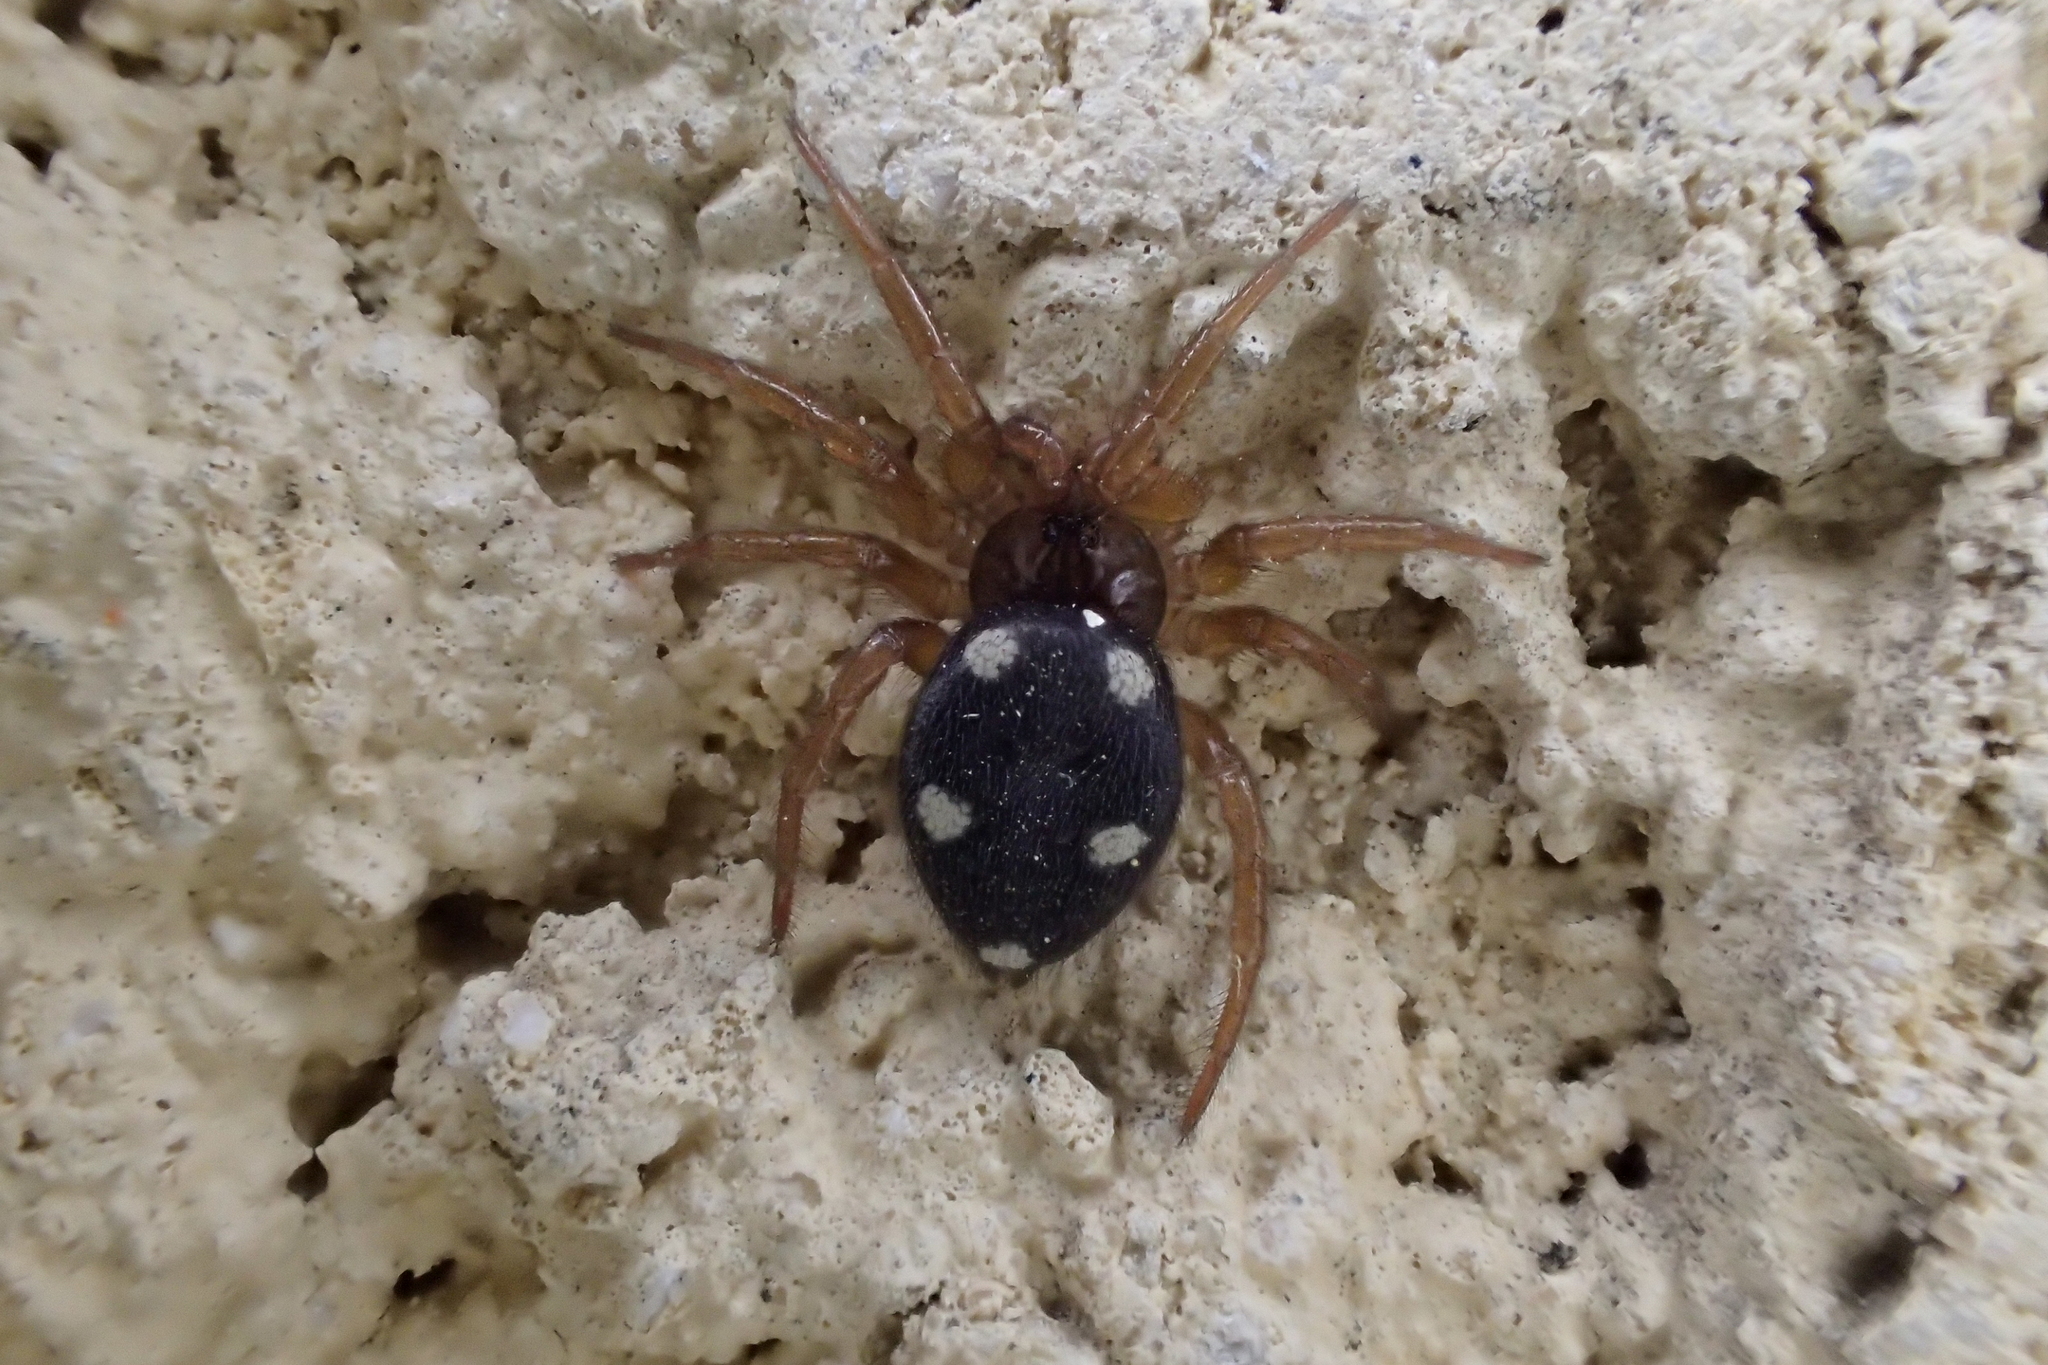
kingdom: Animalia
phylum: Arthropoda
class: Arachnida
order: Araneae
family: Oecobiidae
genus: Uroctea
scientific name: Uroctea durandi
